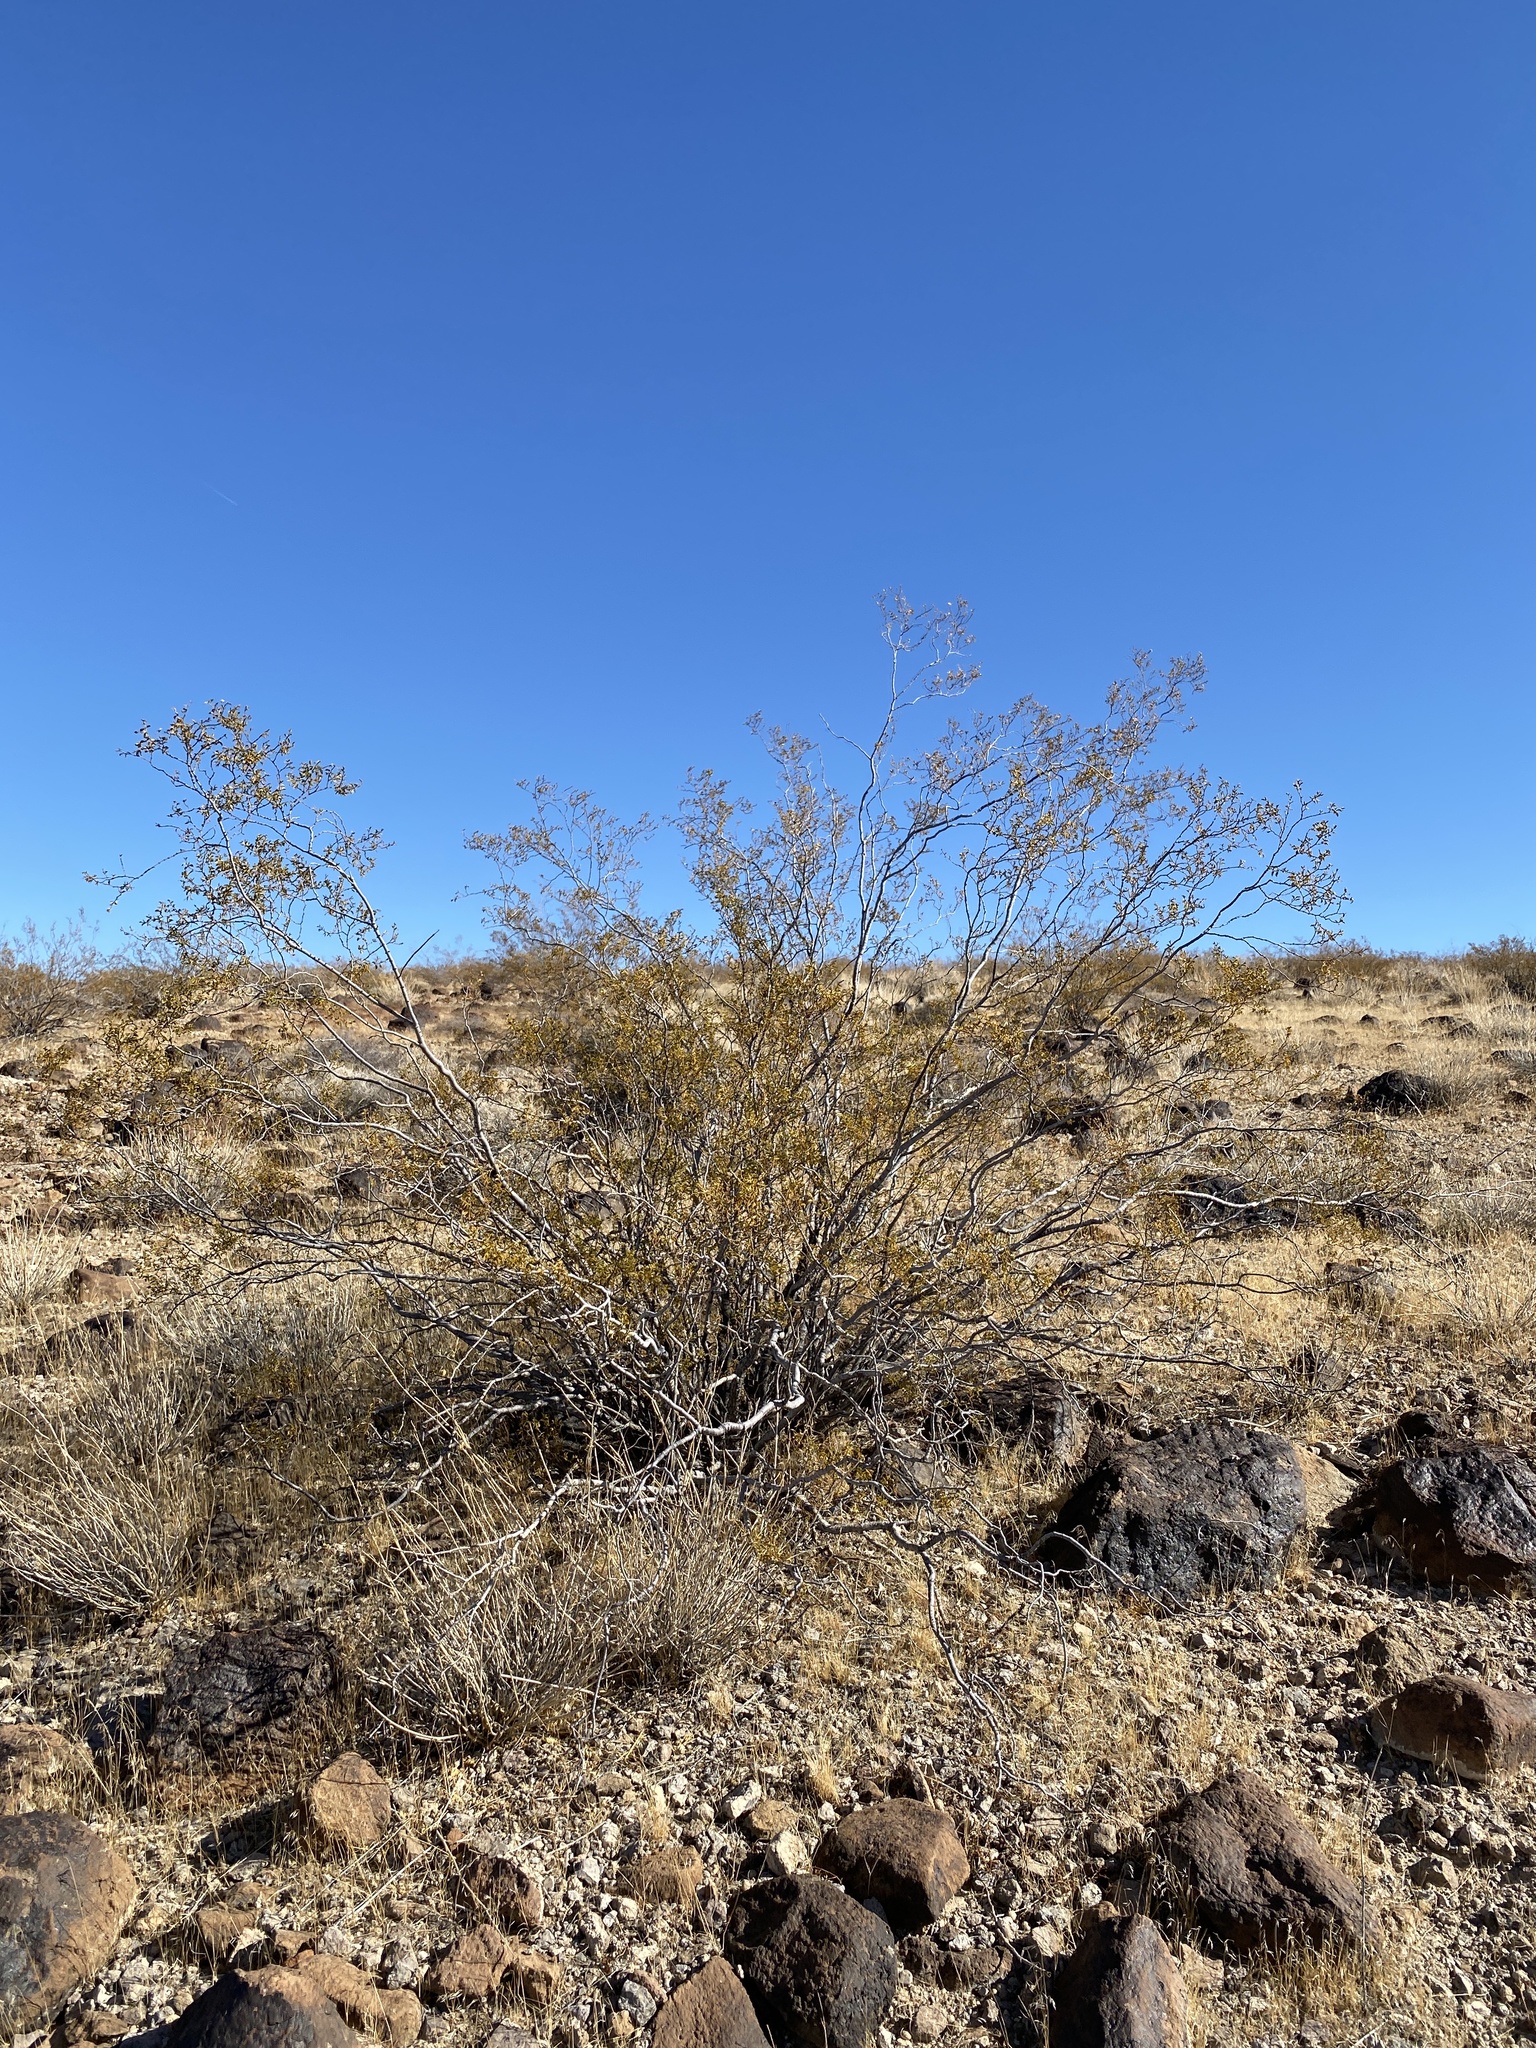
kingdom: Plantae
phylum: Tracheophyta
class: Magnoliopsida
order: Zygophyllales
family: Zygophyllaceae
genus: Larrea
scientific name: Larrea tridentata
